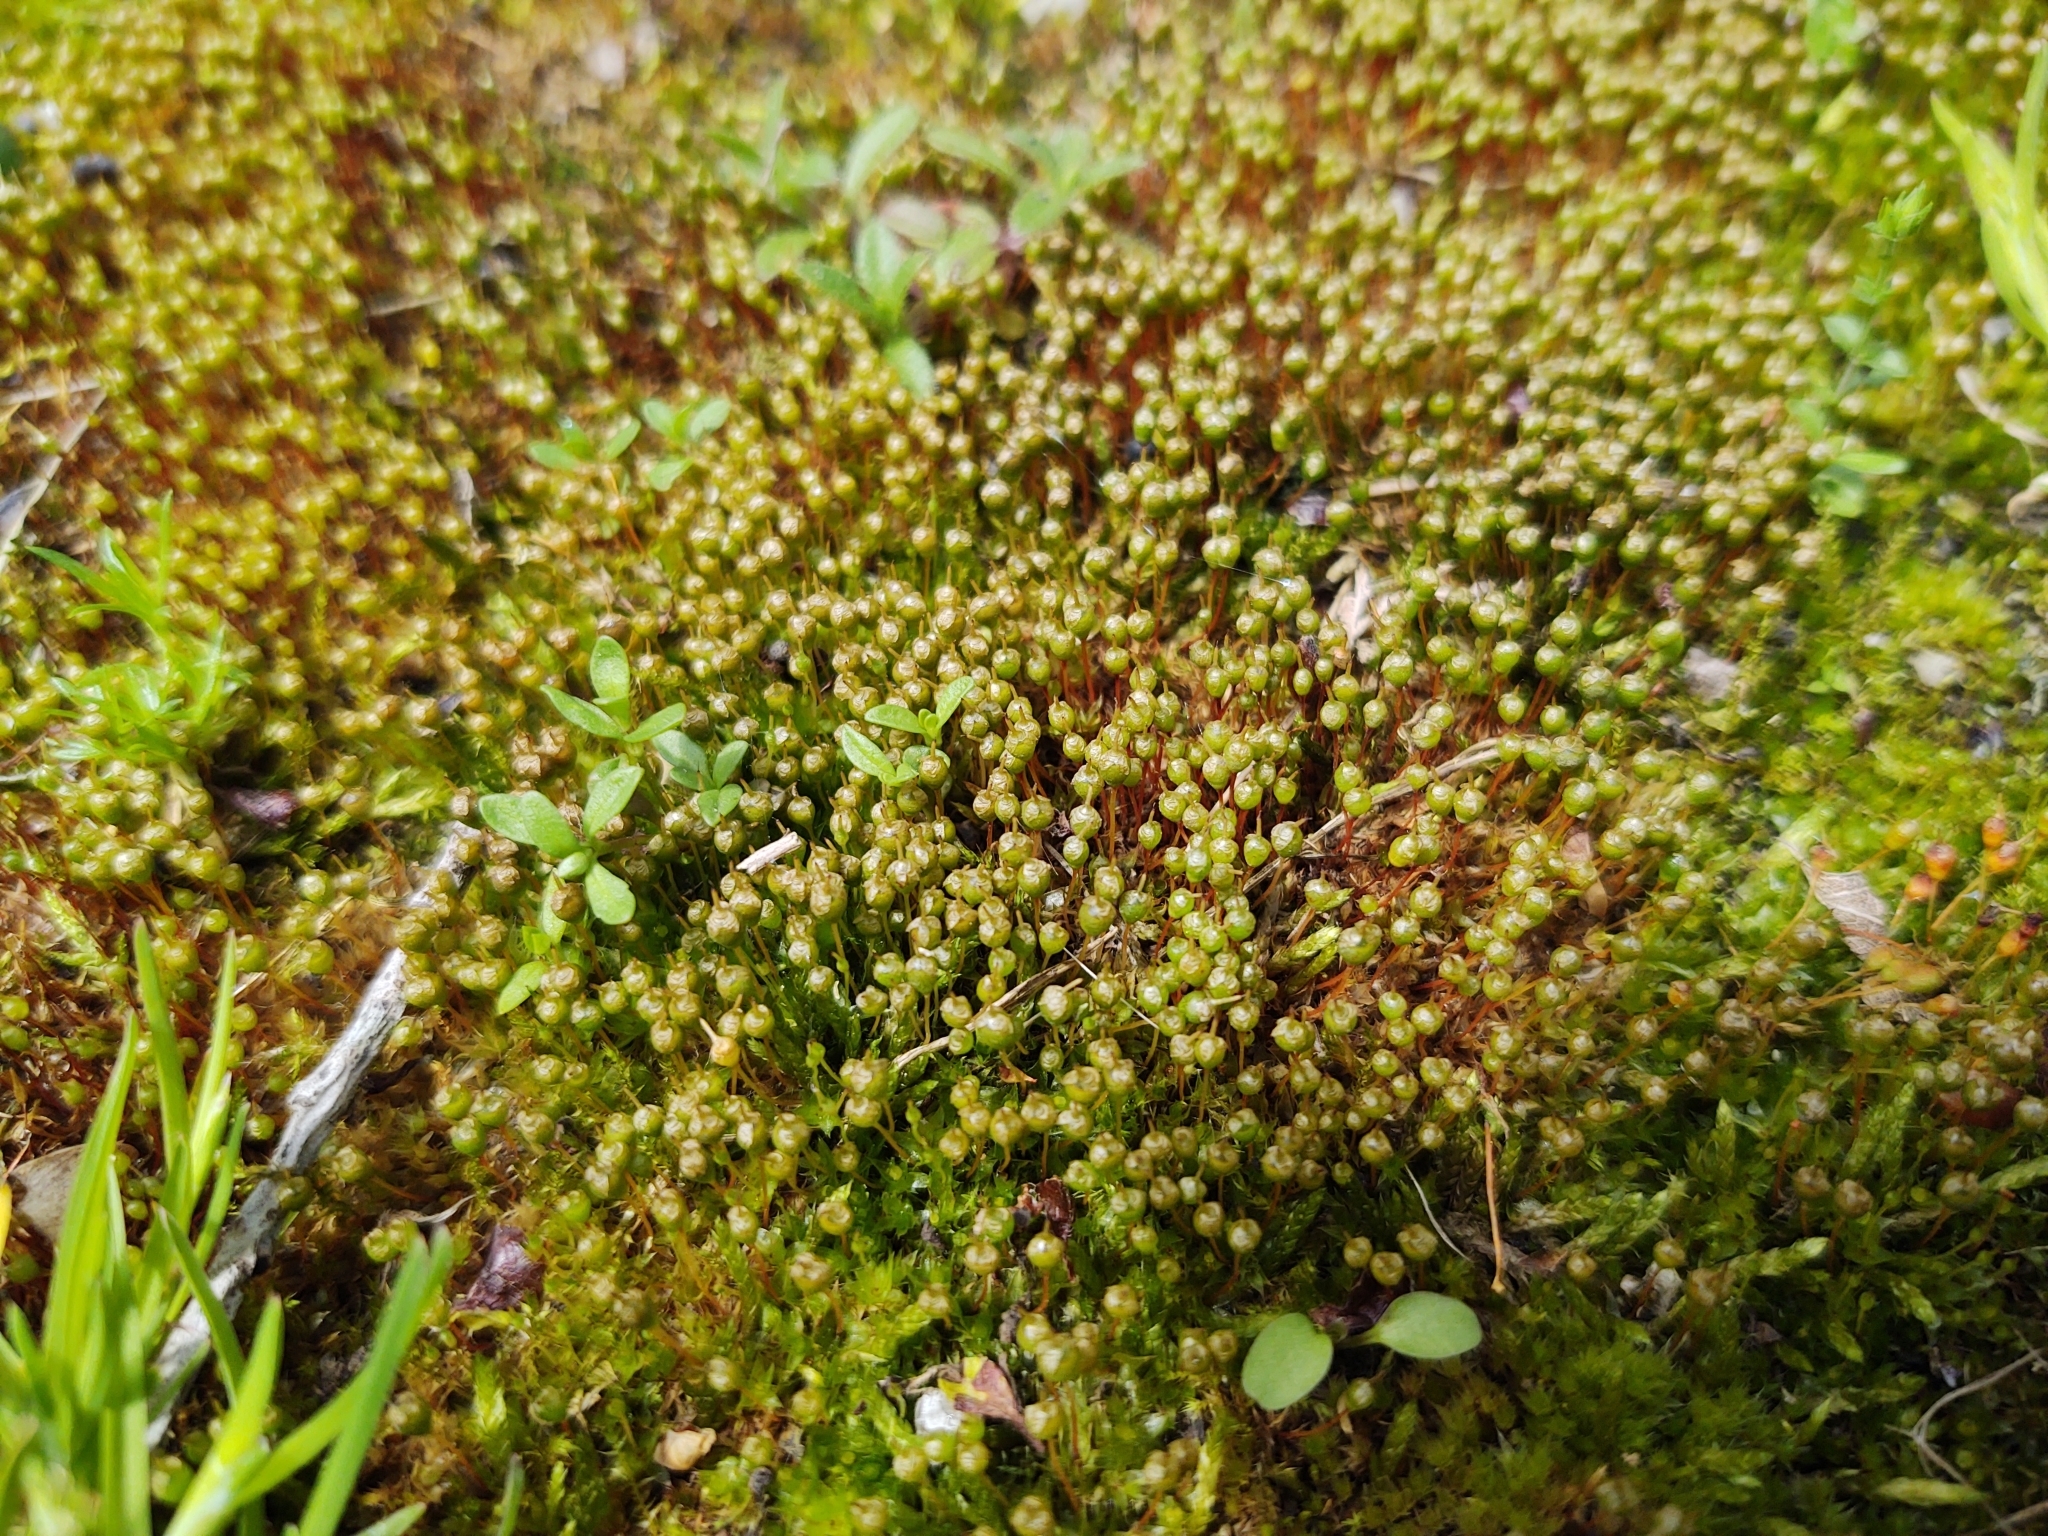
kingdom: Plantae
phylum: Bryophyta
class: Bryopsida
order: Funariales
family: Funariaceae
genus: Physcomitrium
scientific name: Physcomitrium pyriforme
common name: Common bladder-moss
